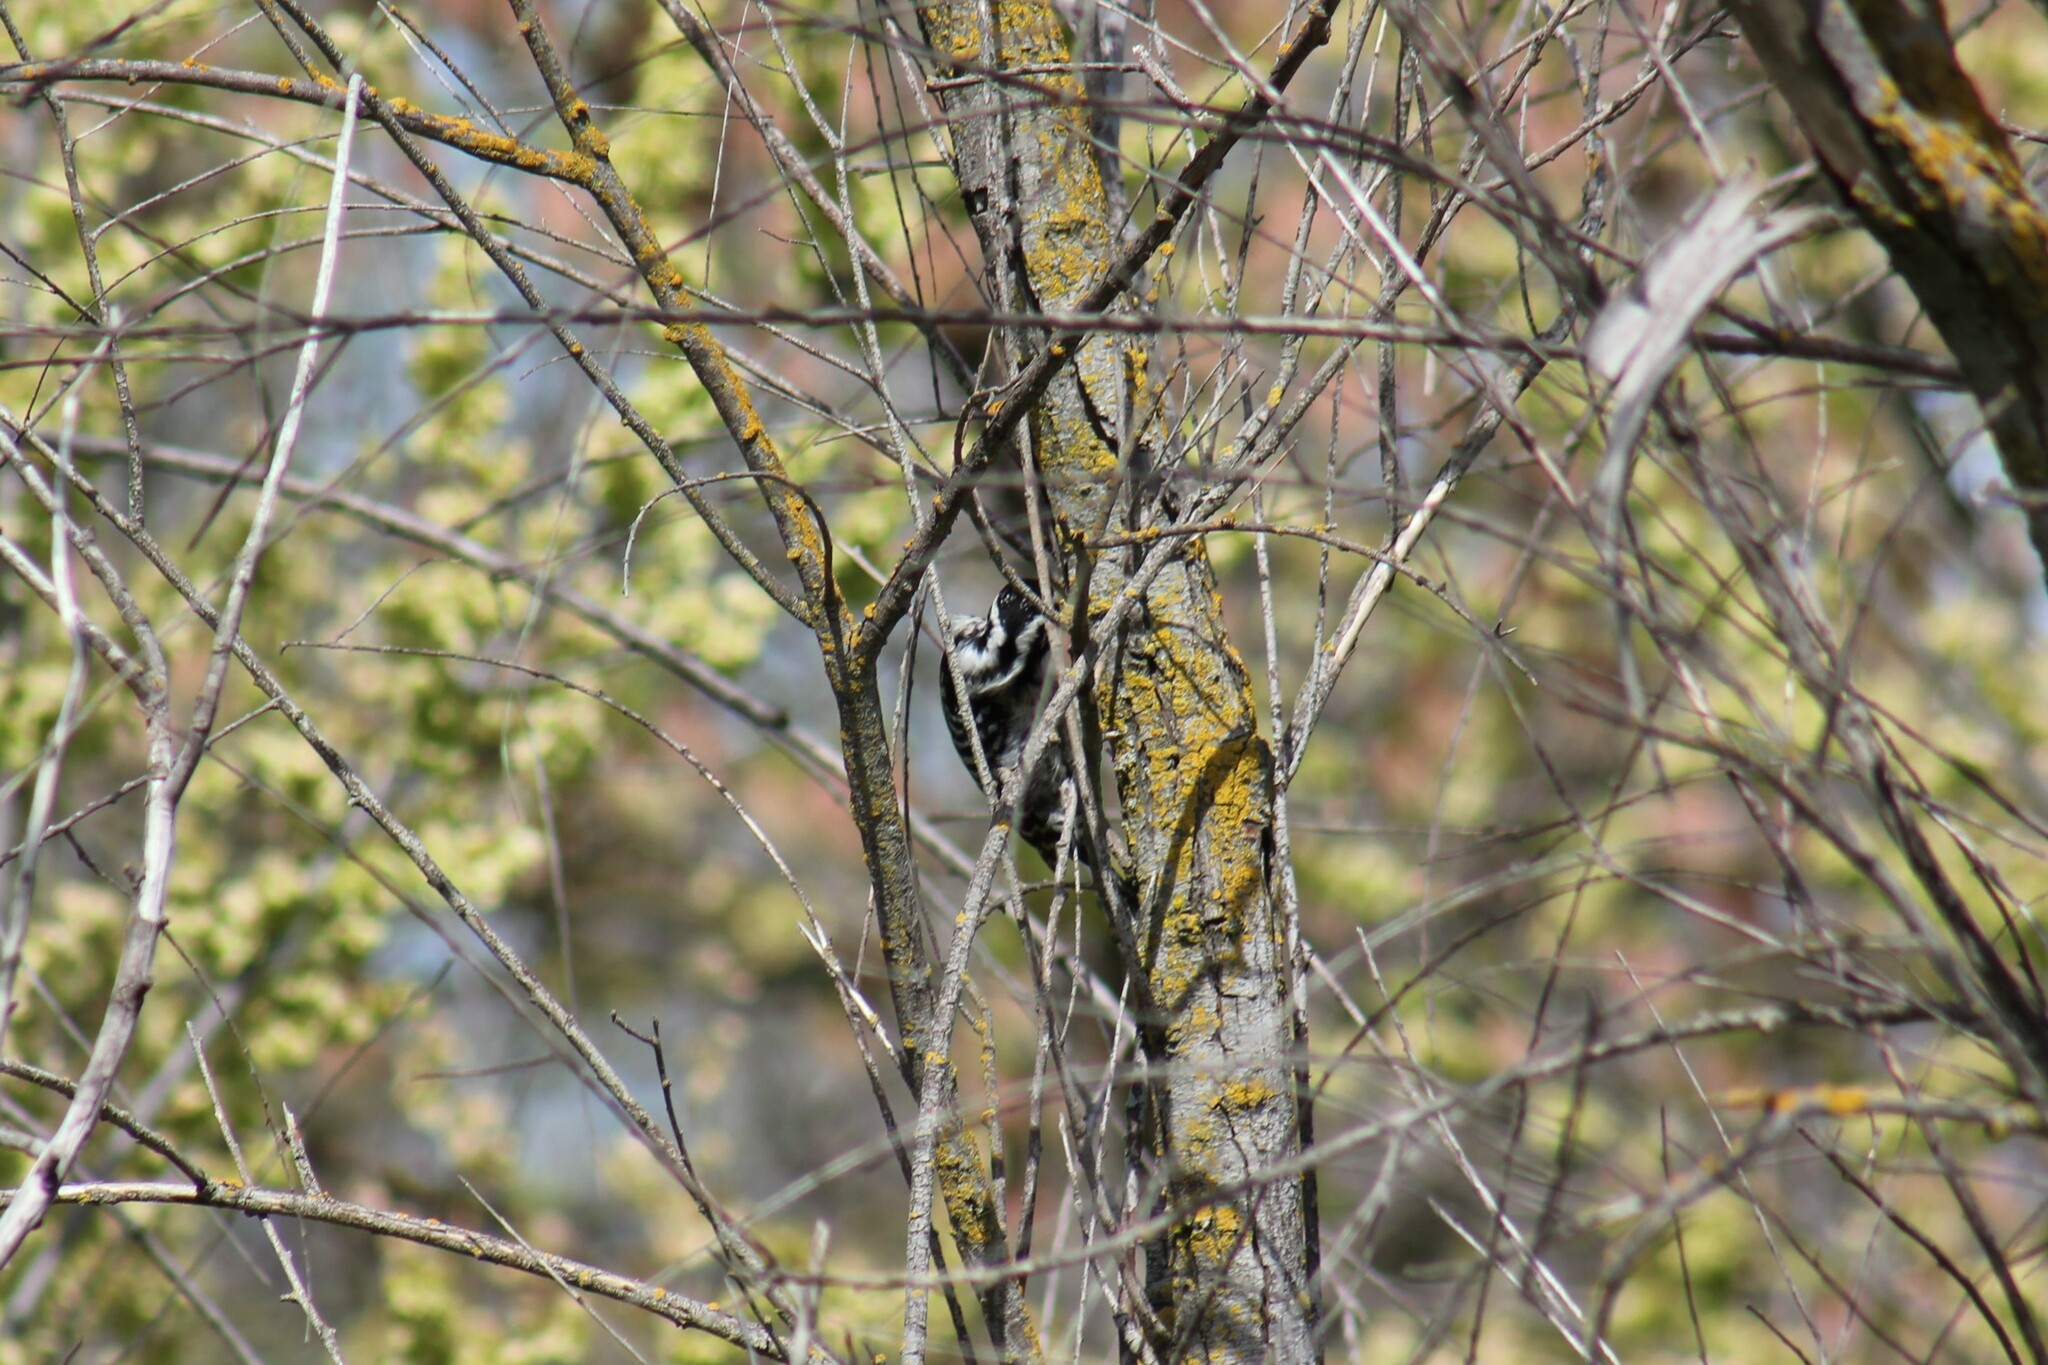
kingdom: Animalia
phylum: Chordata
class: Aves
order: Piciformes
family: Picidae
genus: Dryobates
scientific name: Dryobates nuttallii
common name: Nuttall's woodpecker
